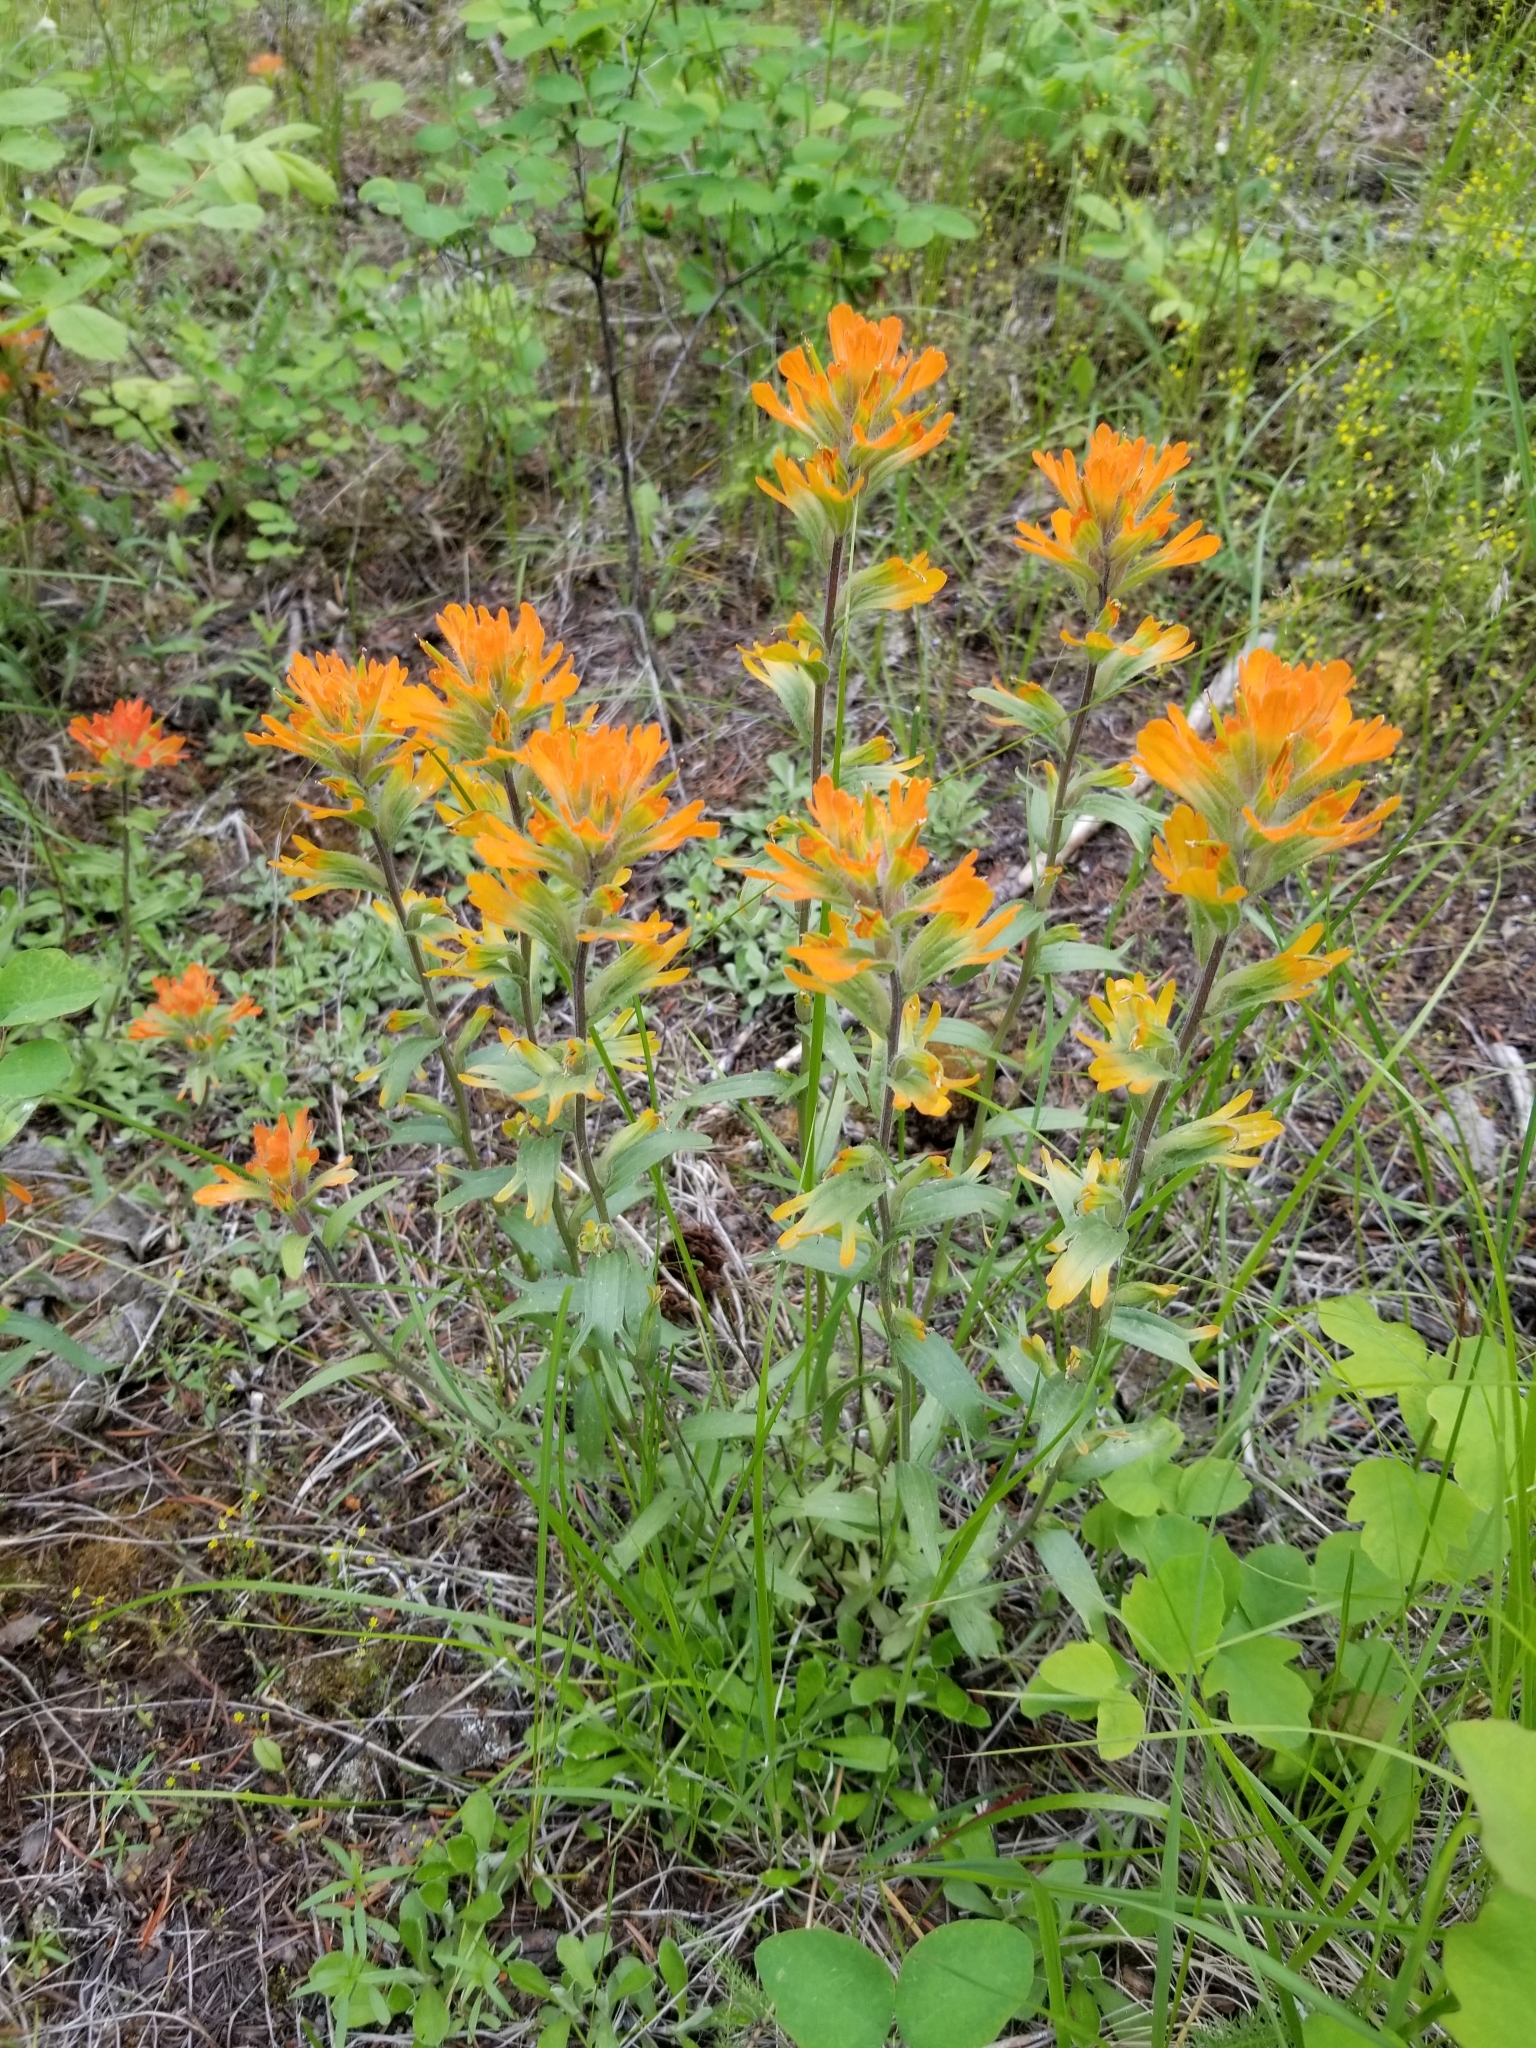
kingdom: Plantae
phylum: Tracheophyta
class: Magnoliopsida
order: Lamiales
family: Orobanchaceae
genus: Castilleja
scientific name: Castilleja hispida
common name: Bristly paintbrush
